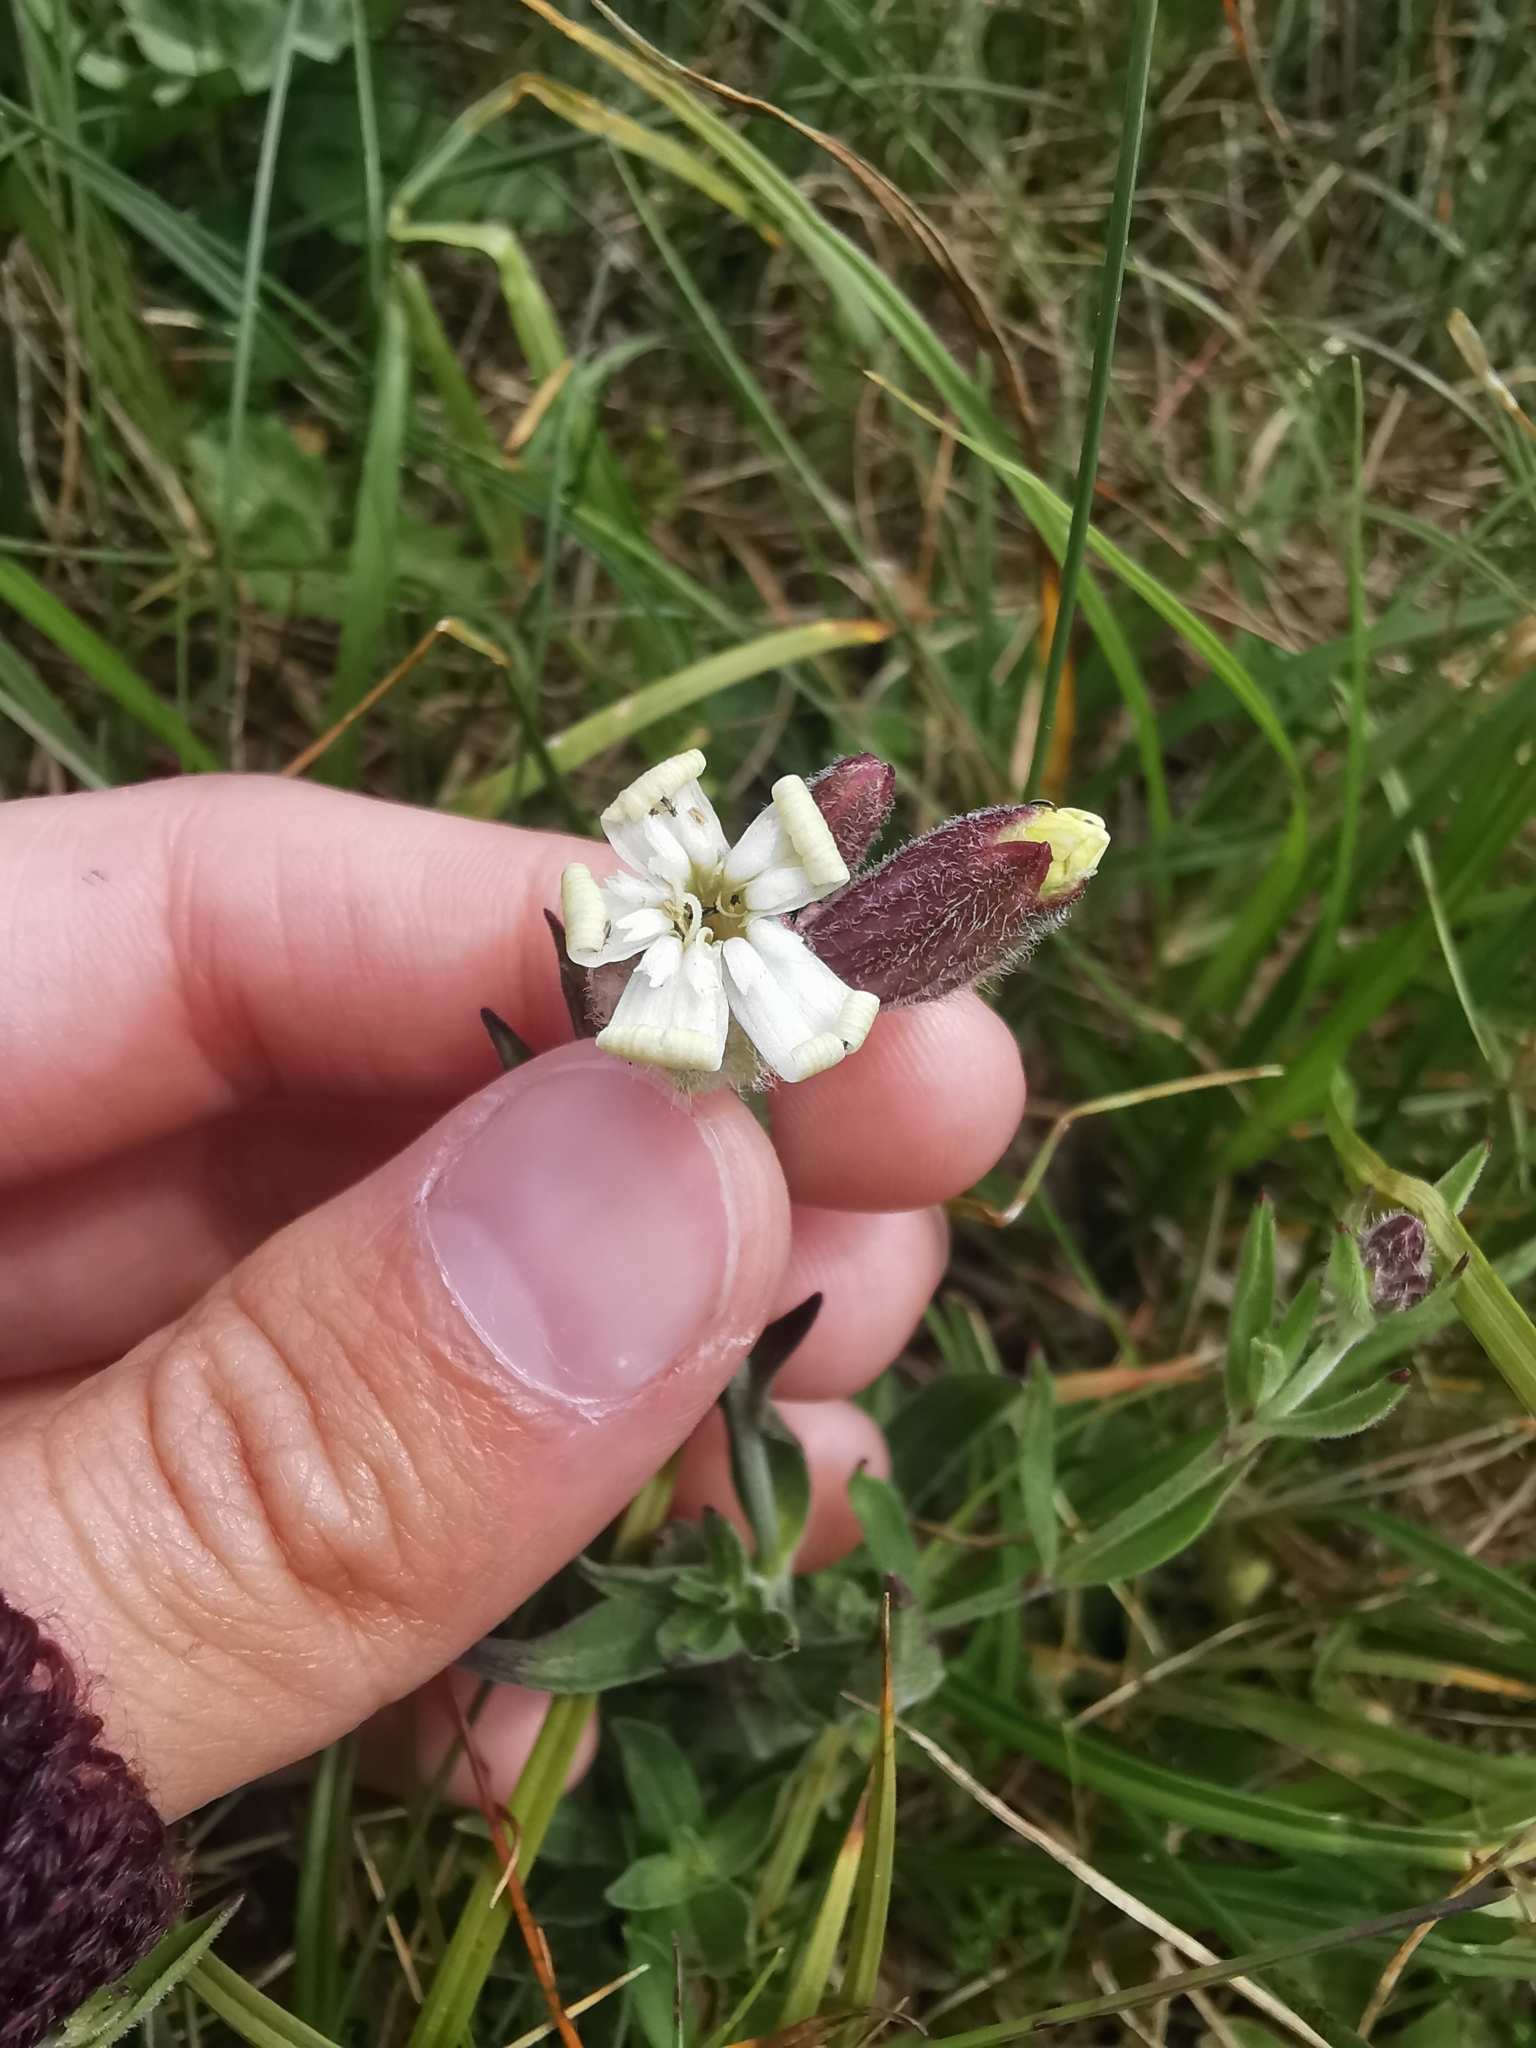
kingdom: Plantae
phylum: Tracheophyta
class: Magnoliopsida
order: Caryophyllales
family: Caryophyllaceae
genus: Silene
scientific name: Silene repens
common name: Pink campion
